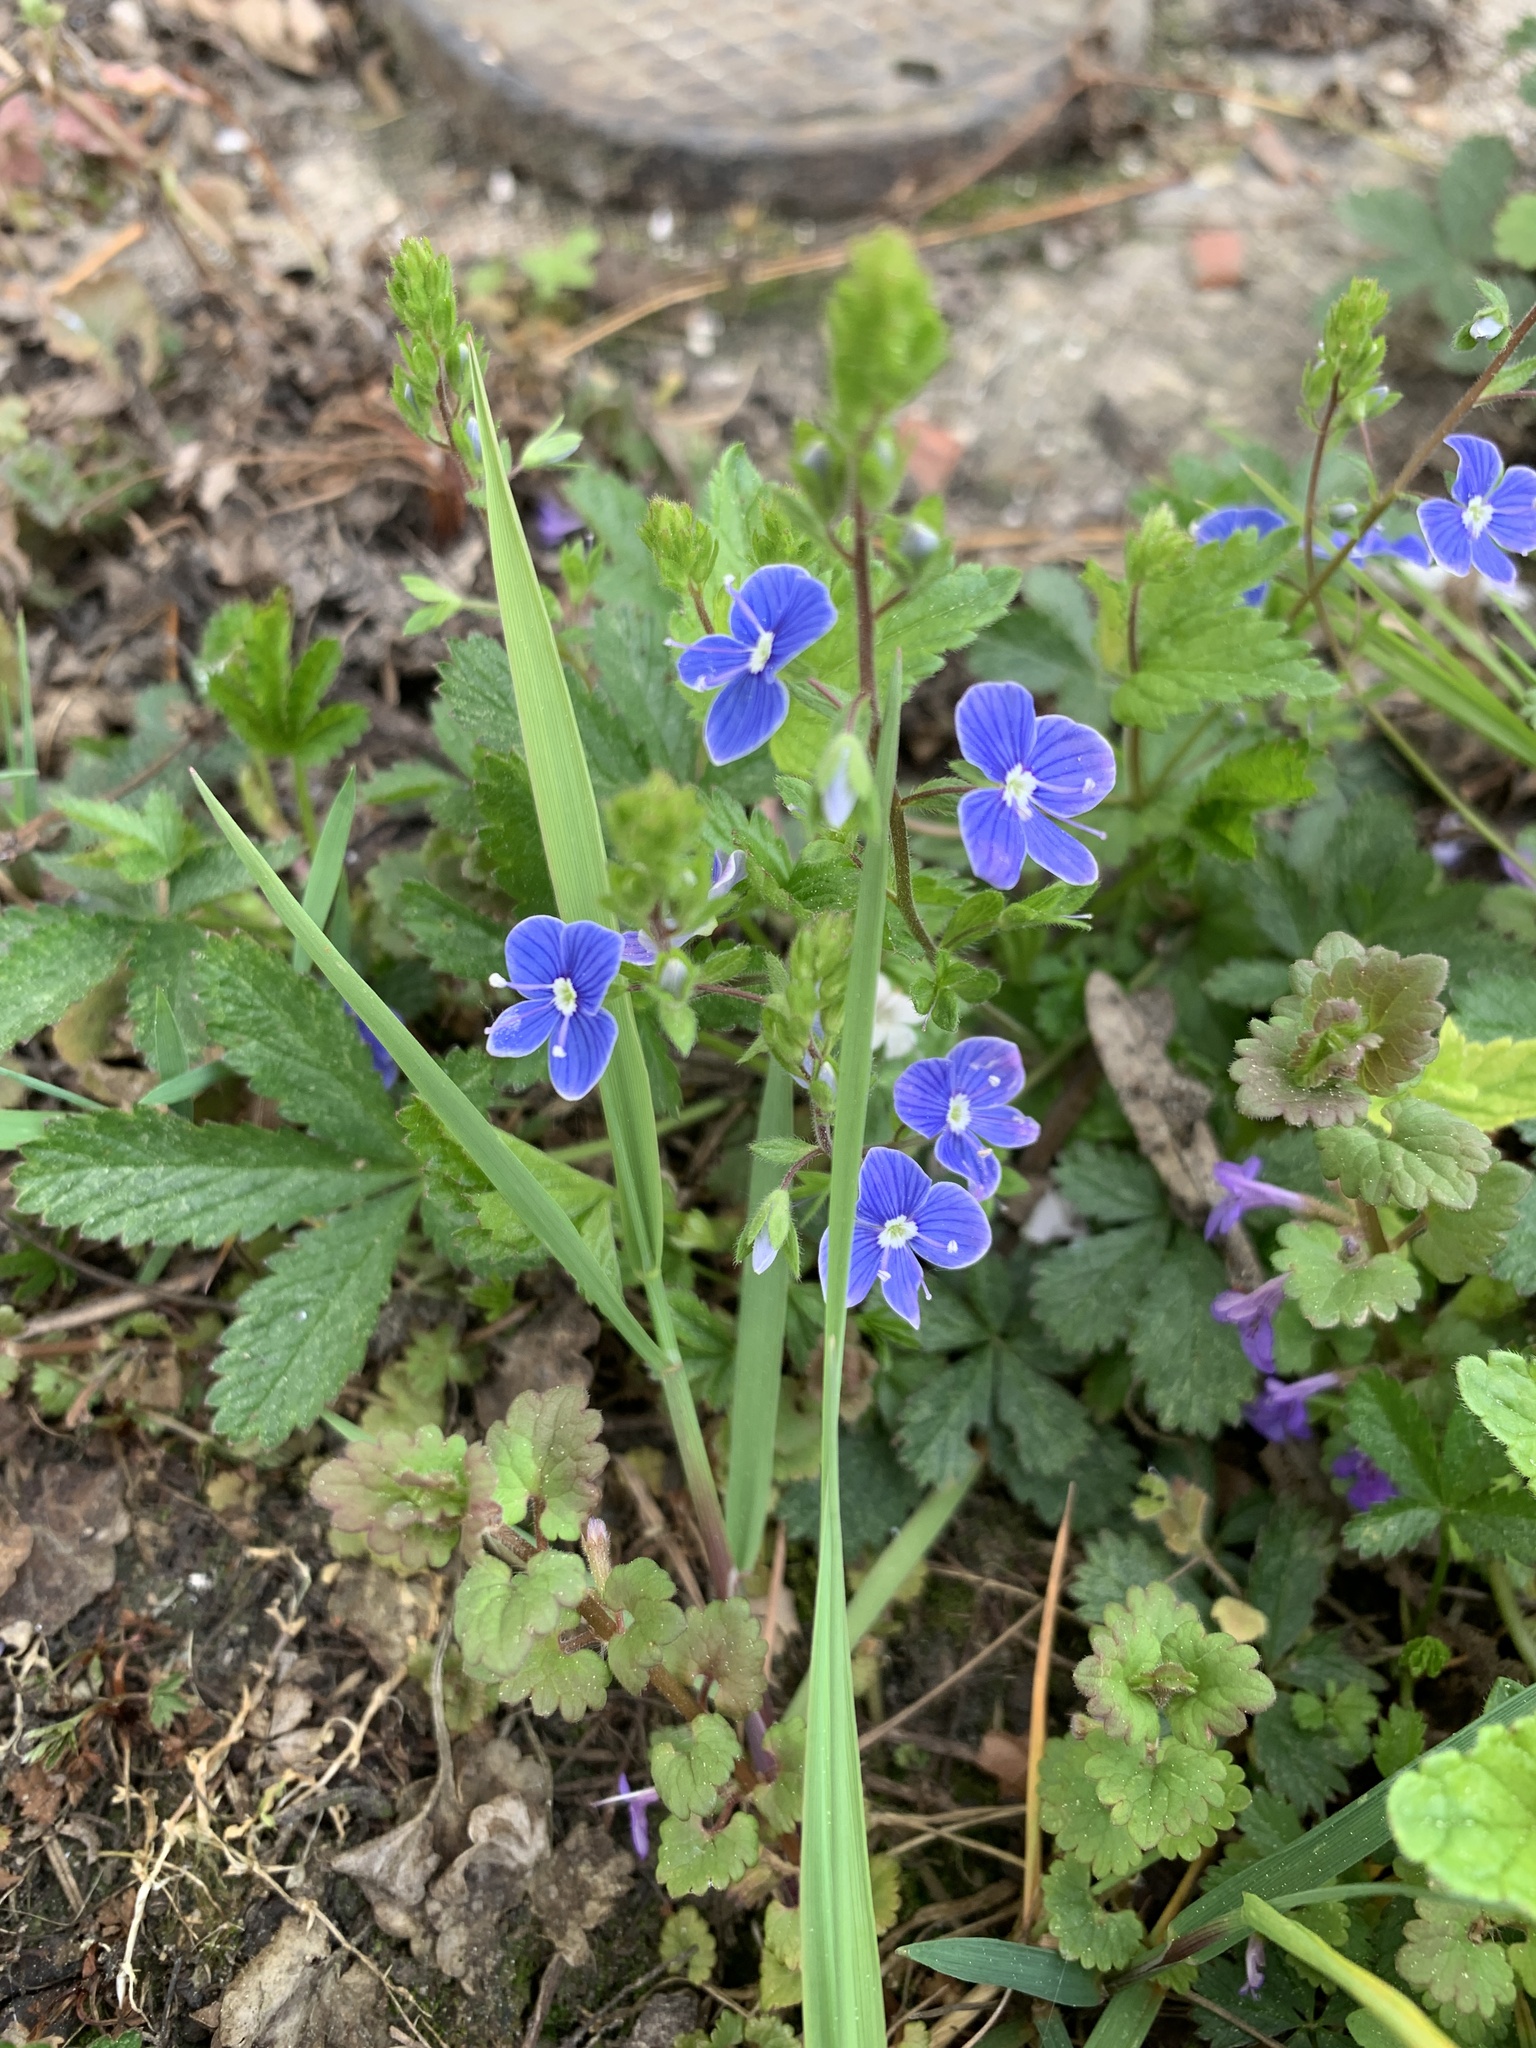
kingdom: Plantae
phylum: Tracheophyta
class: Magnoliopsida
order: Lamiales
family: Plantaginaceae
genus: Veronica
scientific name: Veronica chamaedrys
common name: Germander speedwell
